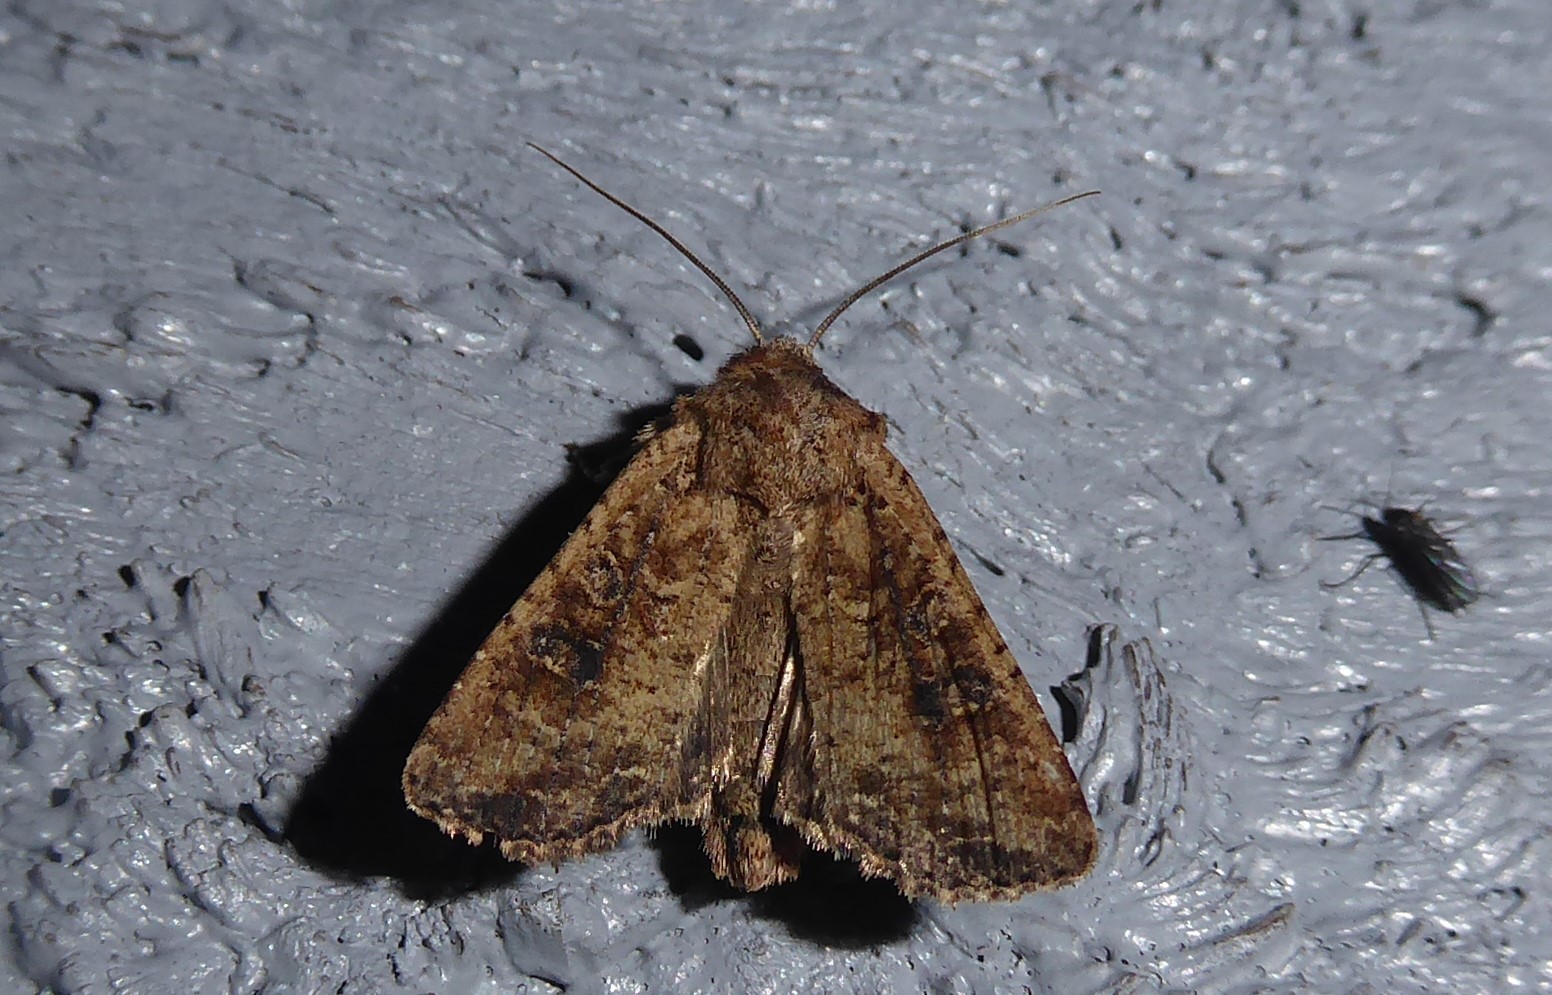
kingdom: Animalia
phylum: Arthropoda
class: Insecta
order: Lepidoptera
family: Noctuidae
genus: Ichneutica
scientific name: Ichneutica morosa
